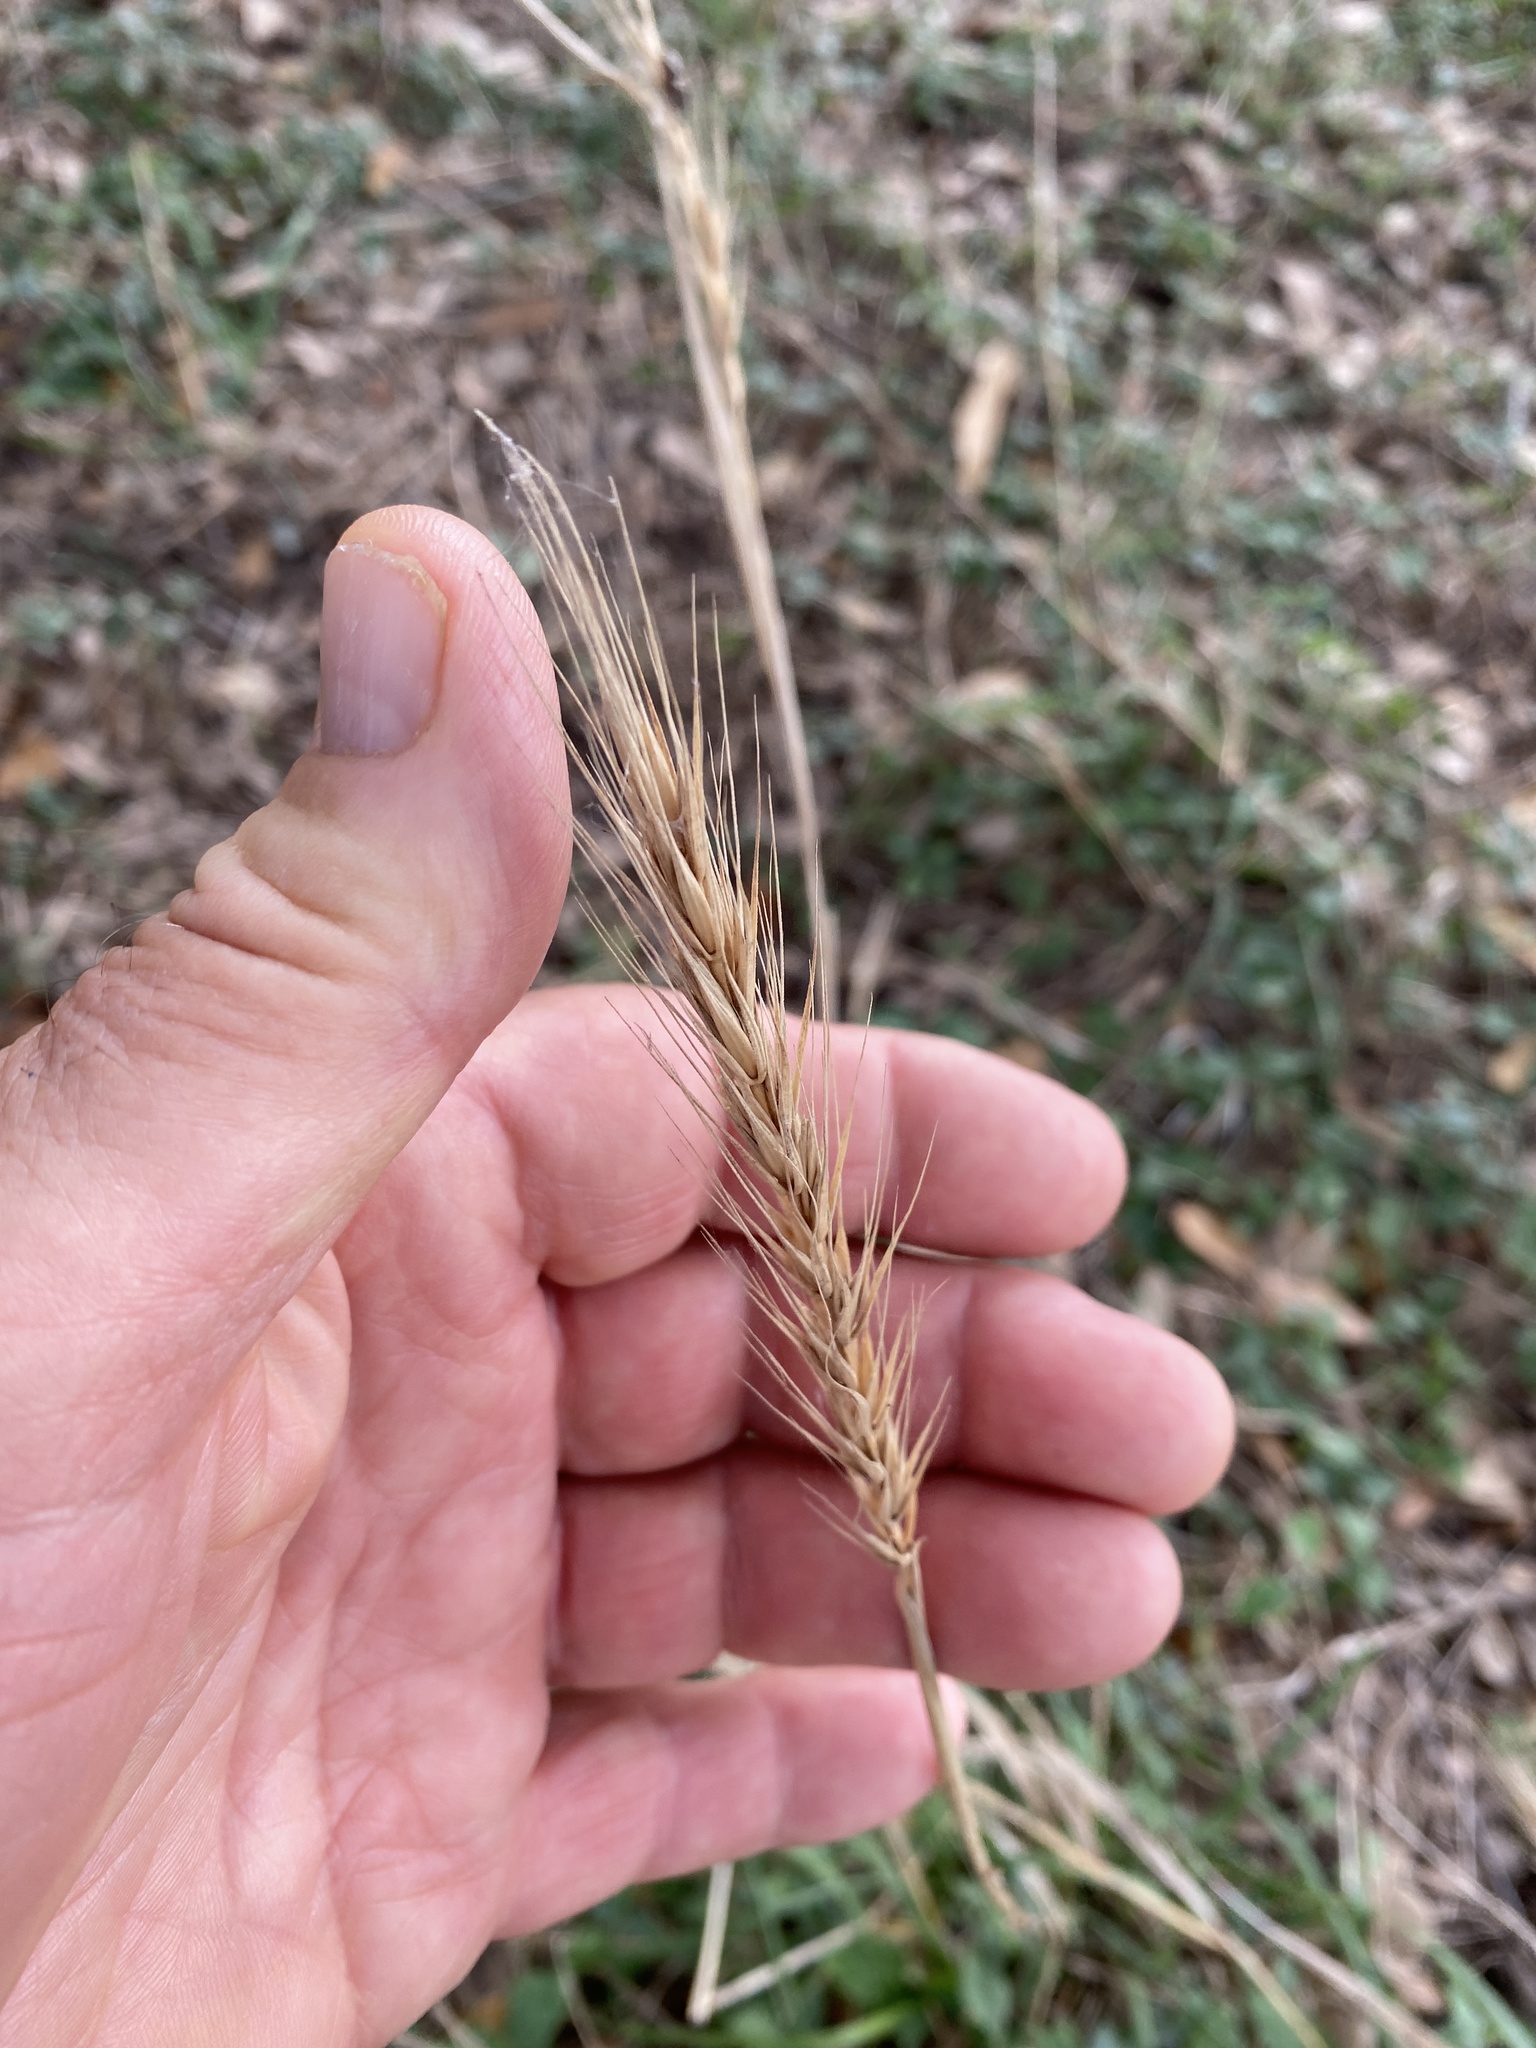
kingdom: Plantae
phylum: Tracheophyta
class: Liliopsida
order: Poales
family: Poaceae
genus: Elymus
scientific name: Elymus virginicus
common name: Common eastern wildrye
